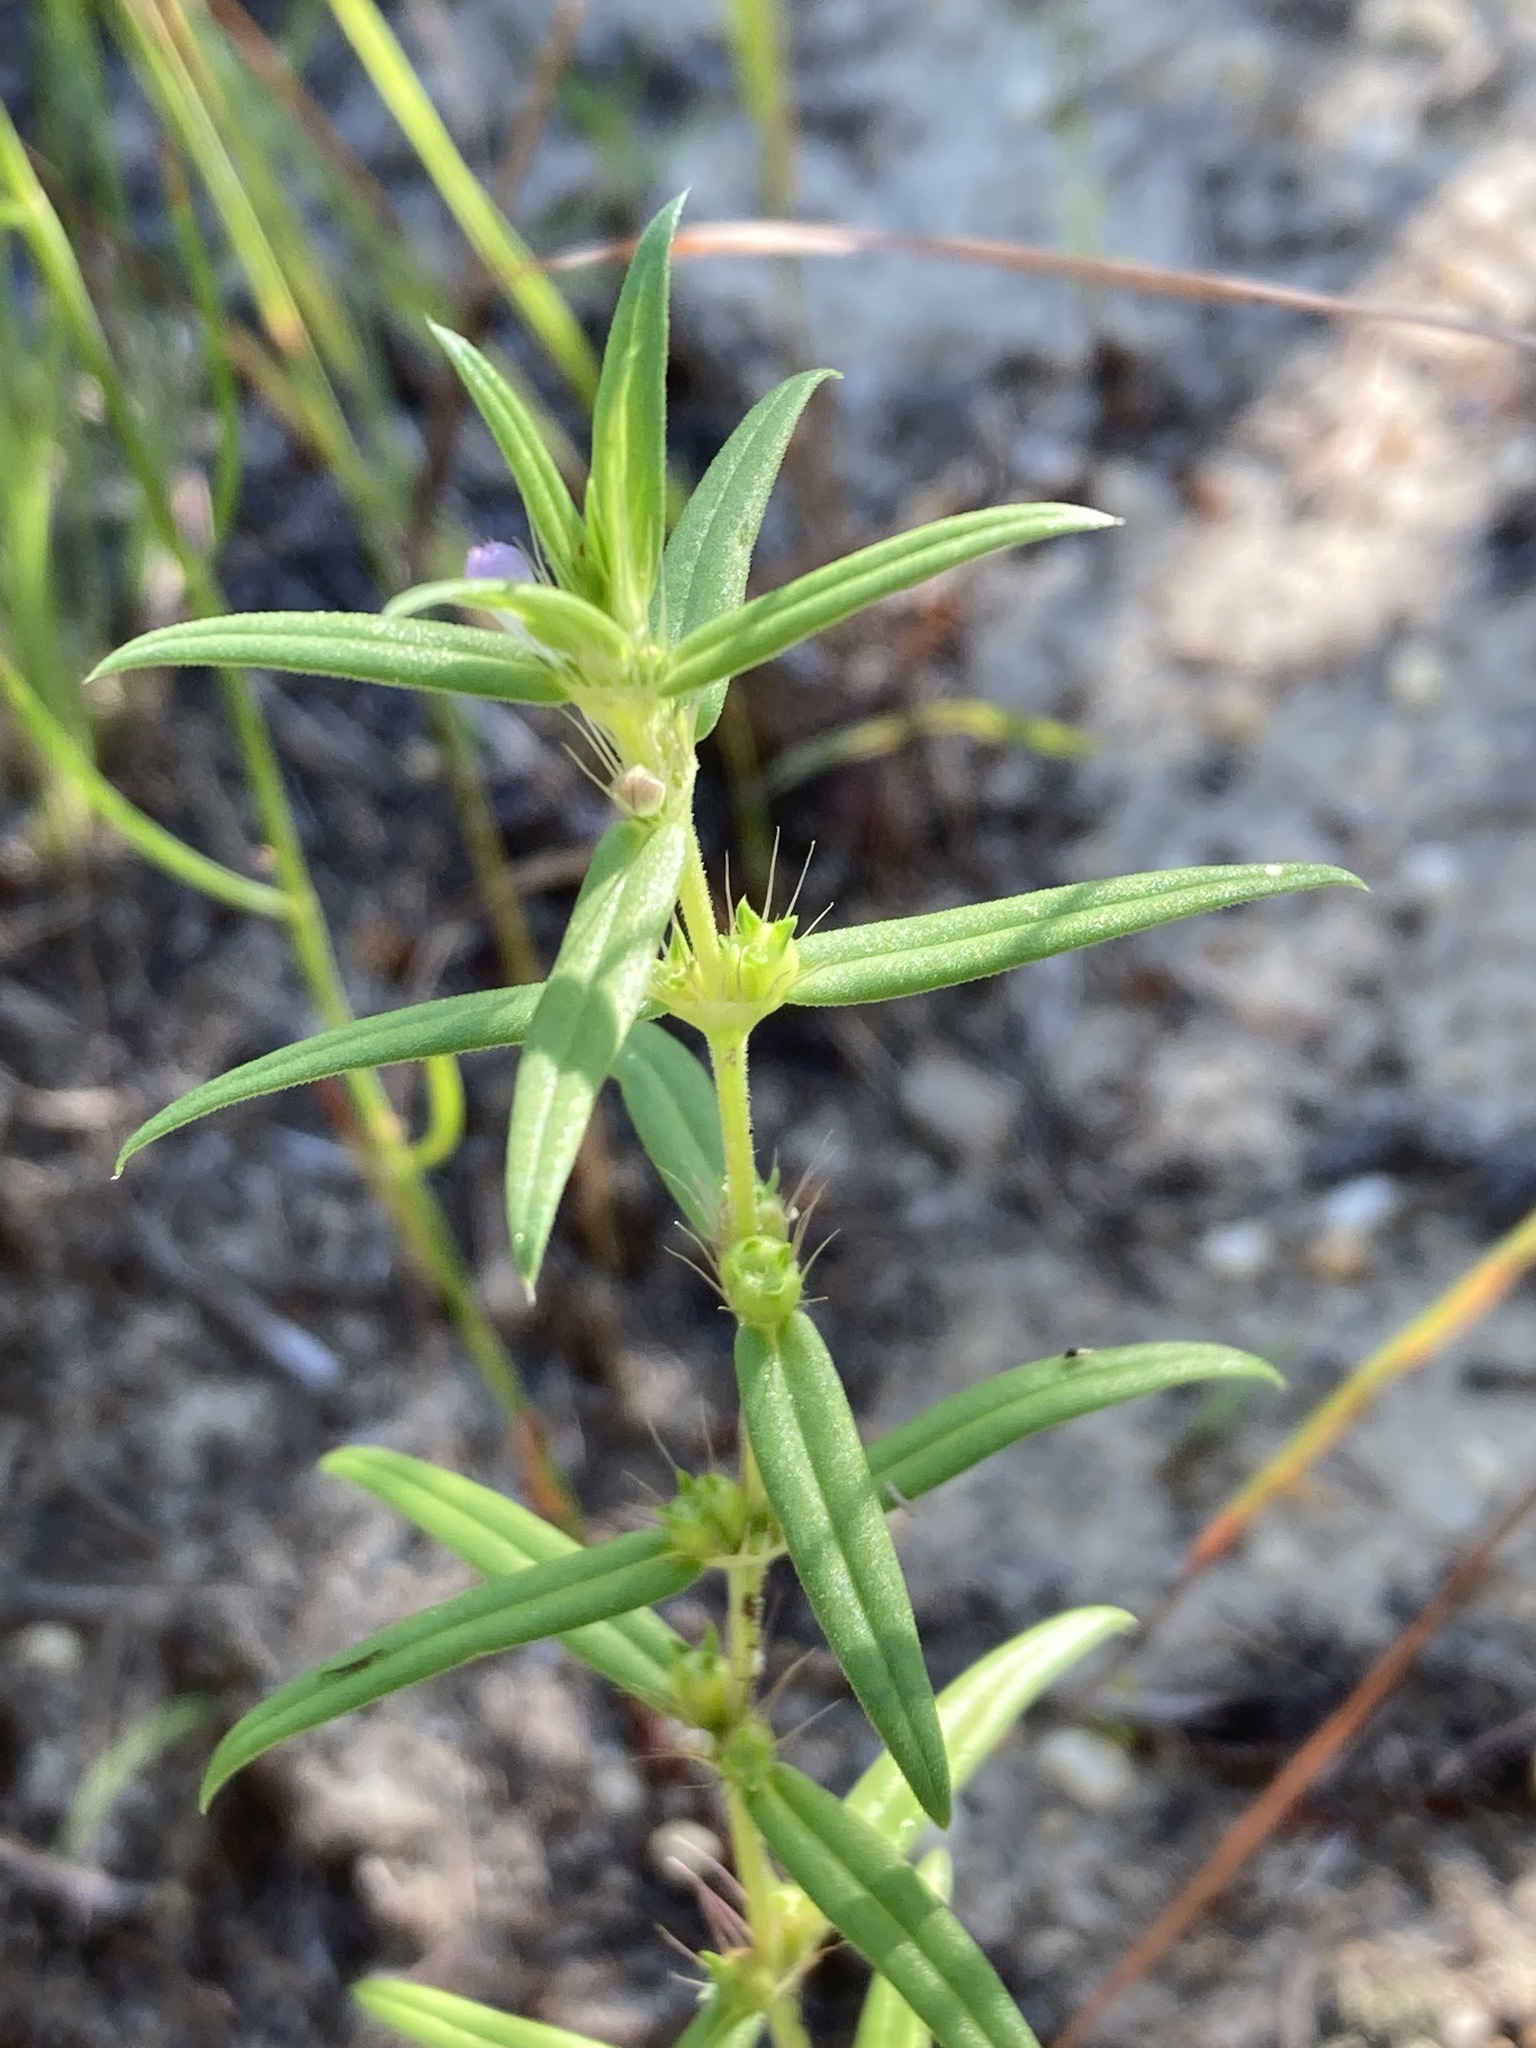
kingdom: Plantae
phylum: Tracheophyta
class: Magnoliopsida
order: Gentianales
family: Rubiaceae
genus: Hexasepalum
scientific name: Hexasepalum teres
